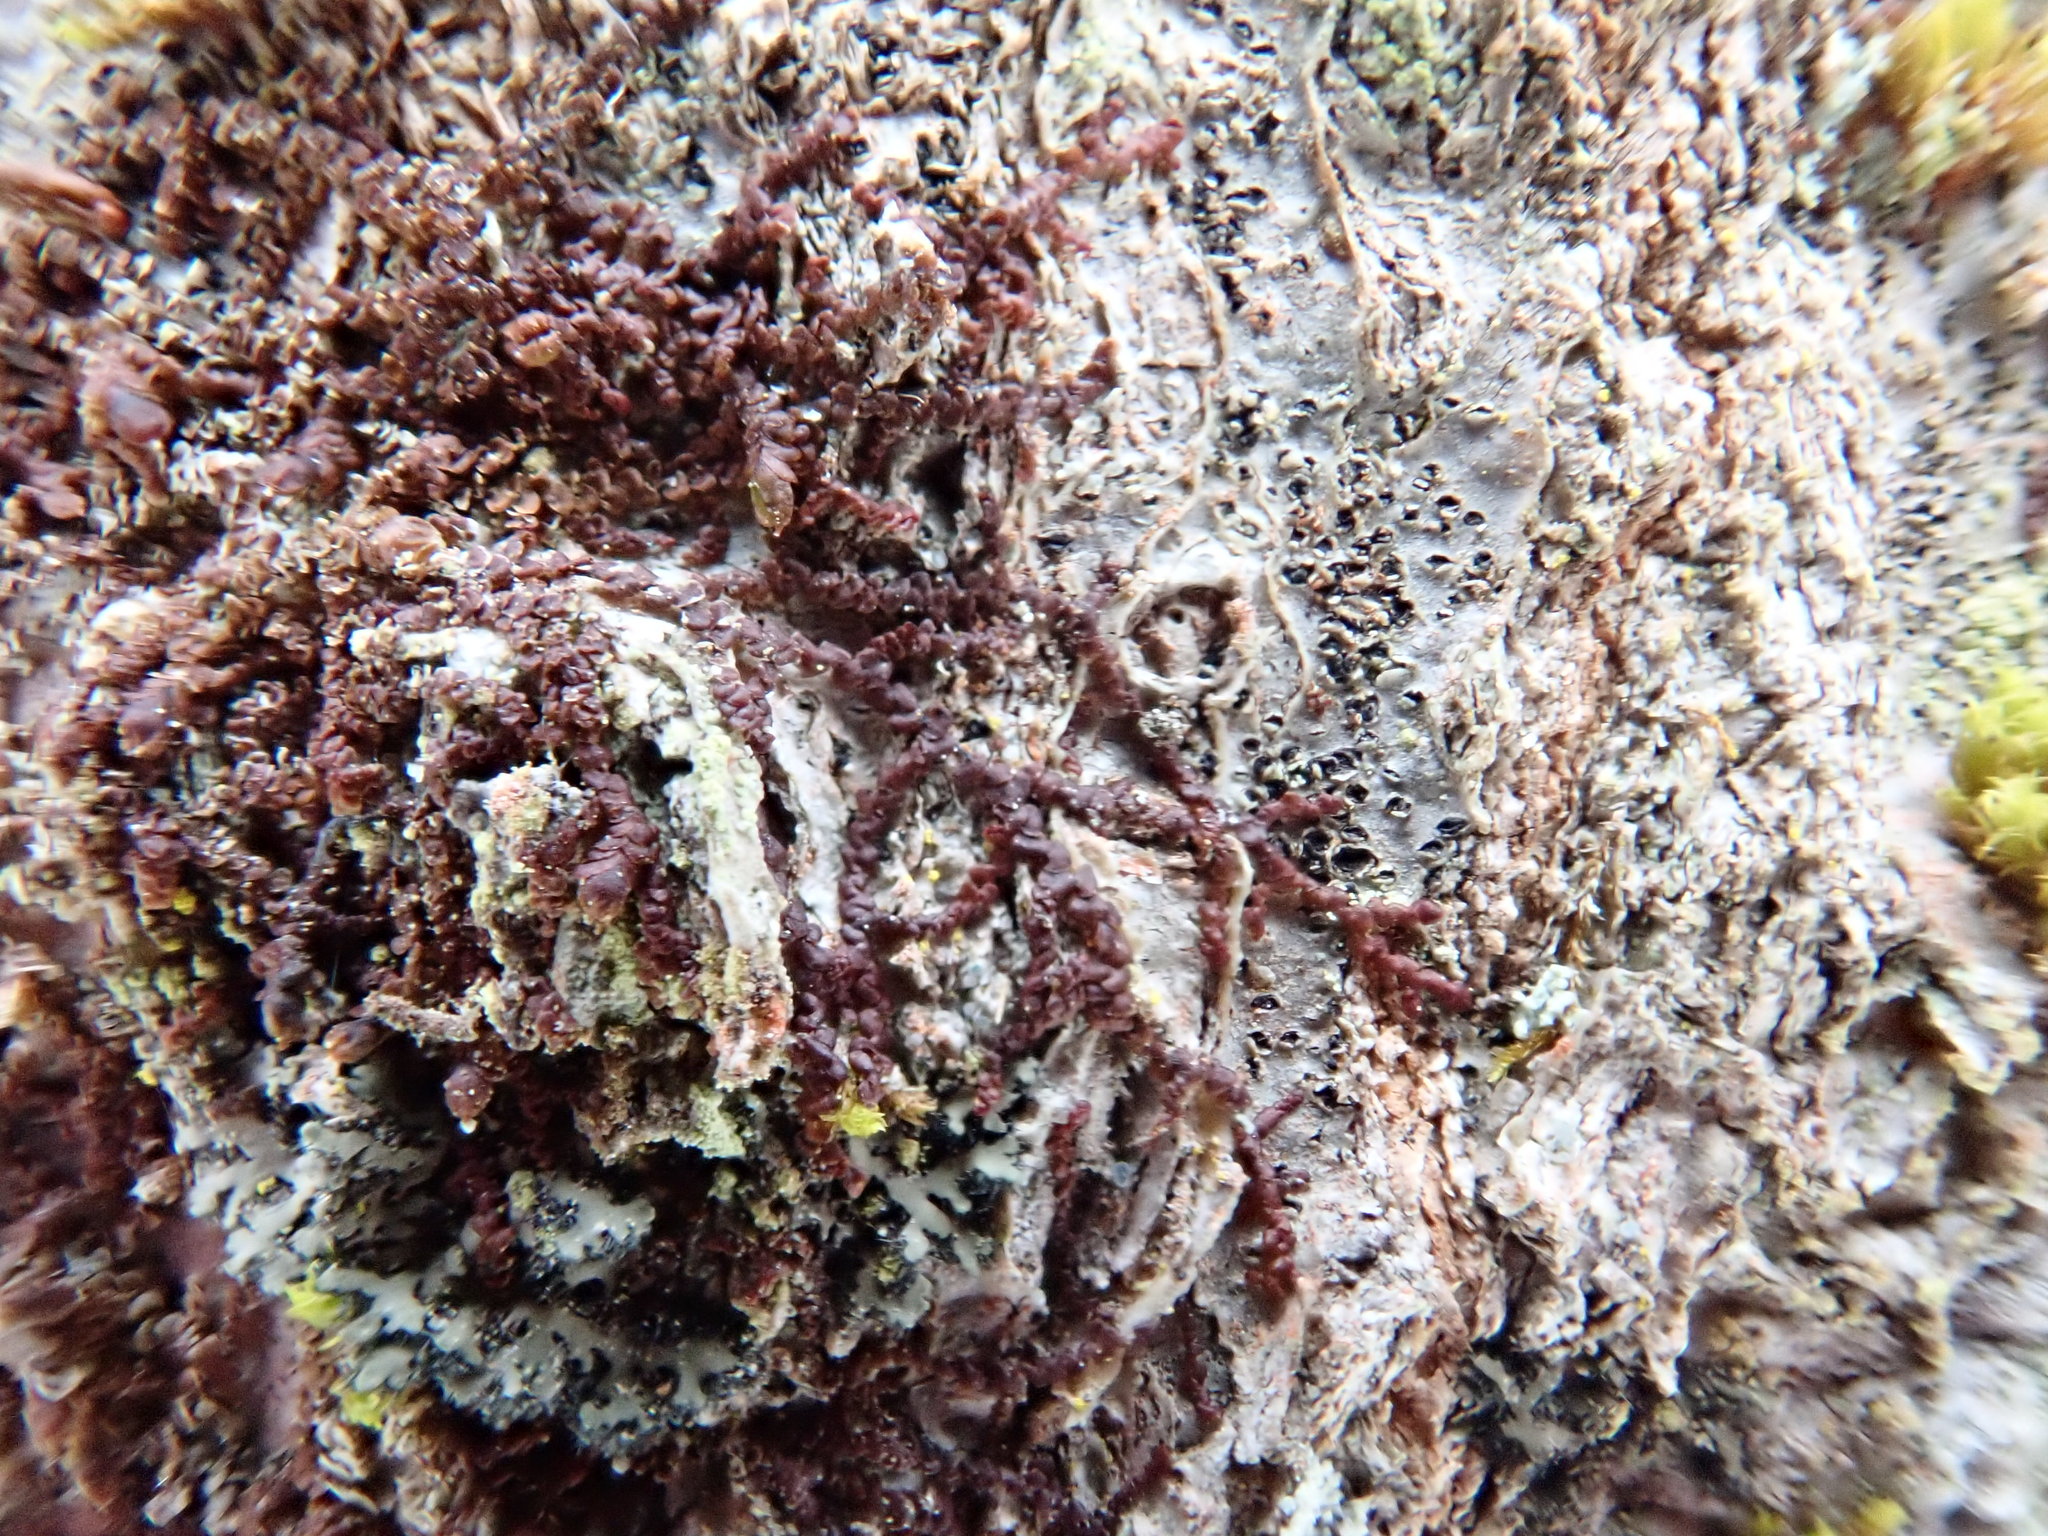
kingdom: Plantae
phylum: Marchantiophyta
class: Jungermanniopsida
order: Porellales
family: Frullaniaceae
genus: Frullania
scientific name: Frullania eboracensis
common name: New york scalewort
